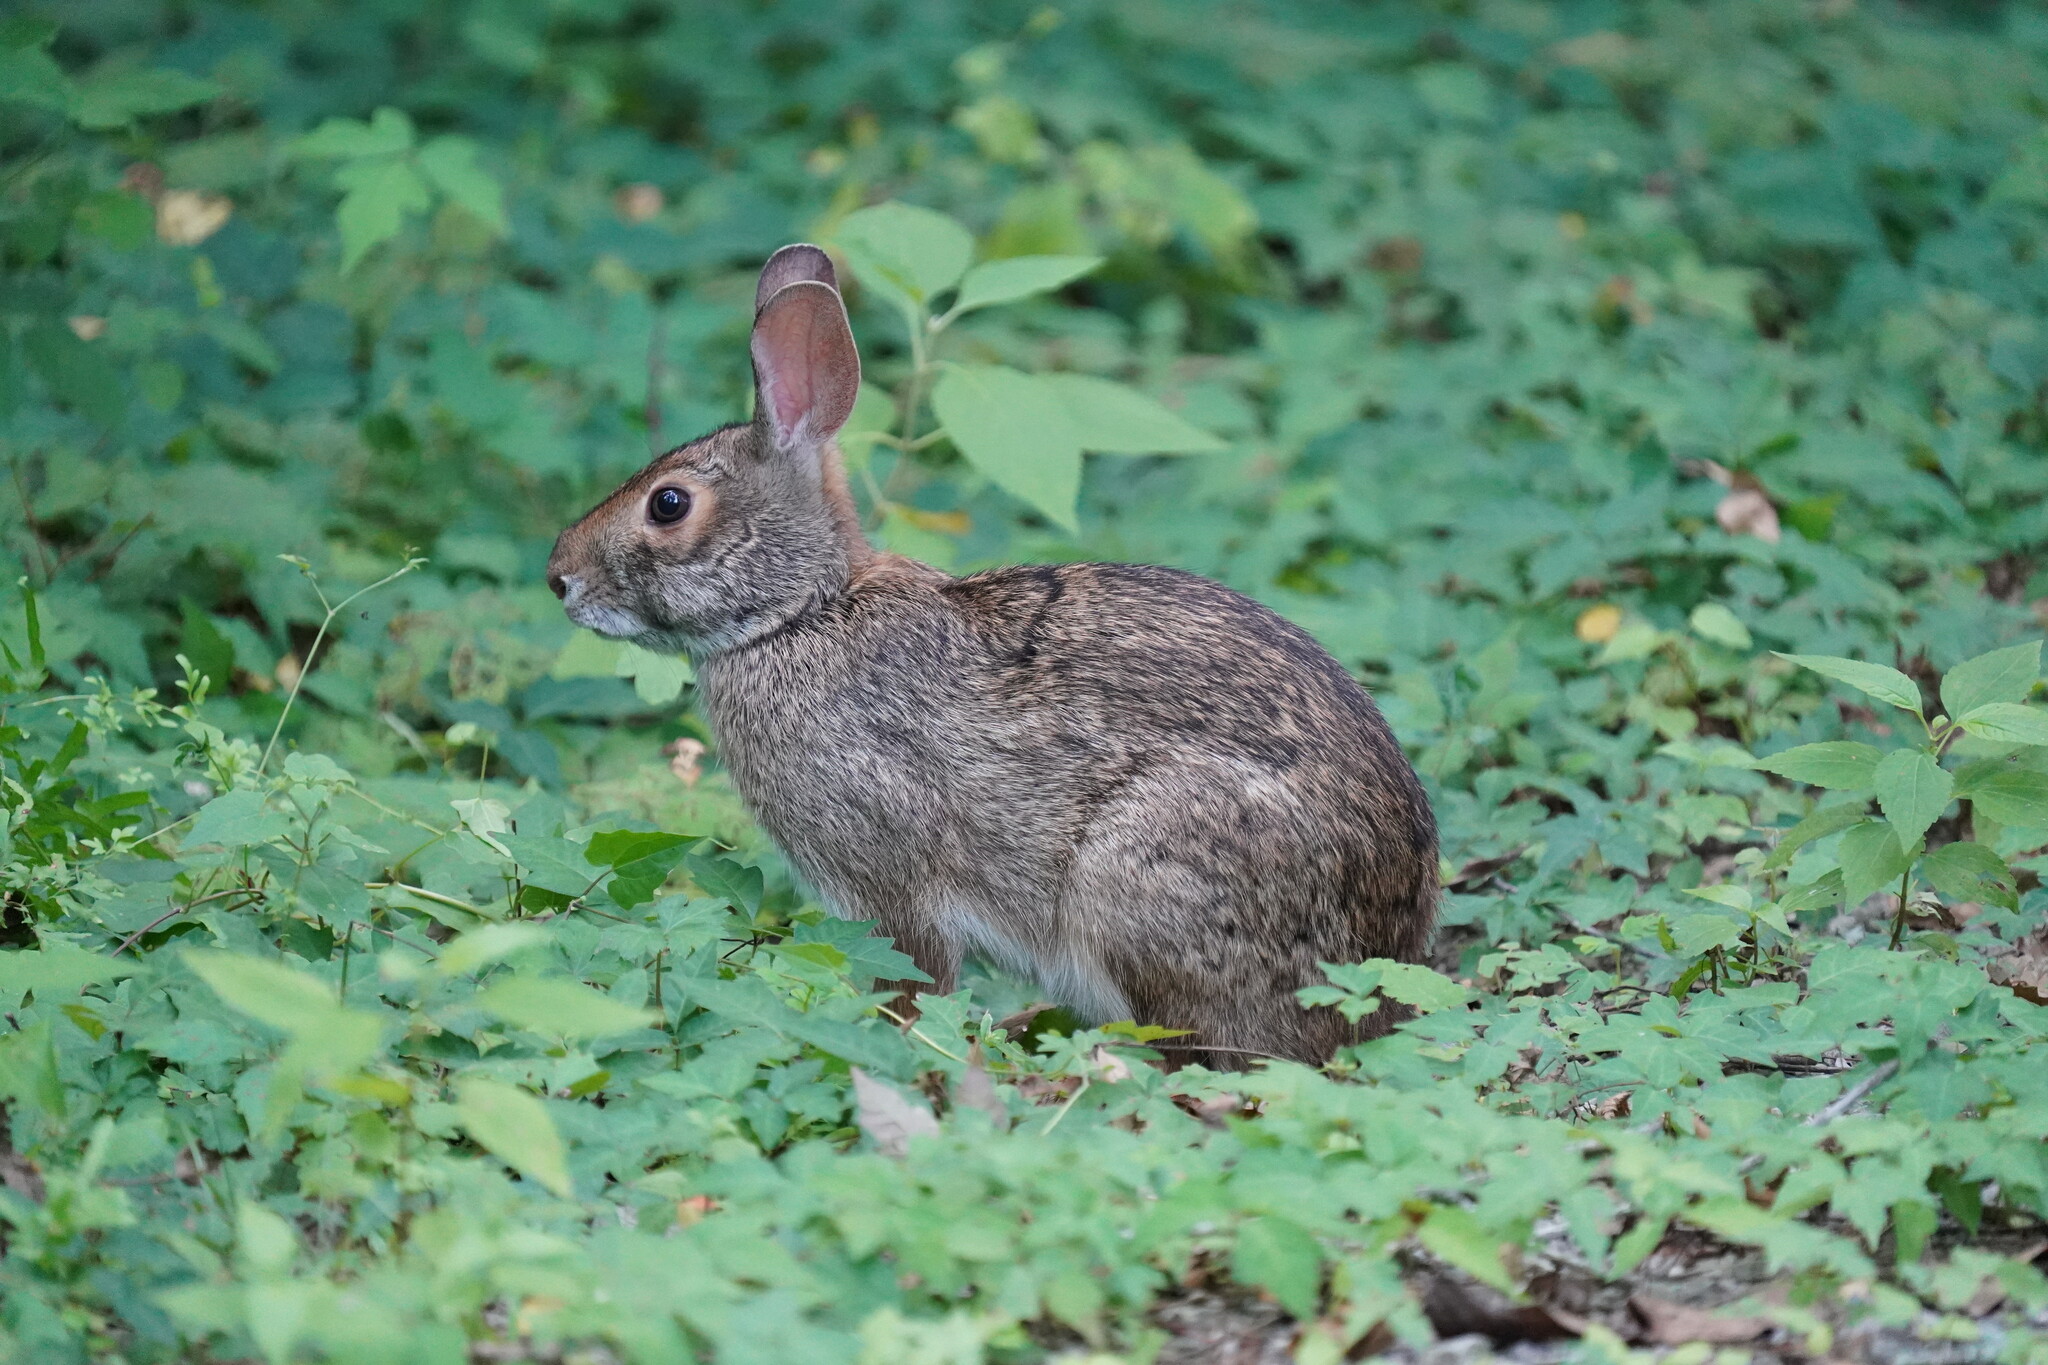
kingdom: Animalia
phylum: Chordata
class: Mammalia
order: Lagomorpha
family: Leporidae
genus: Sylvilagus
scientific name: Sylvilagus aquaticus
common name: Swamp rabbit
